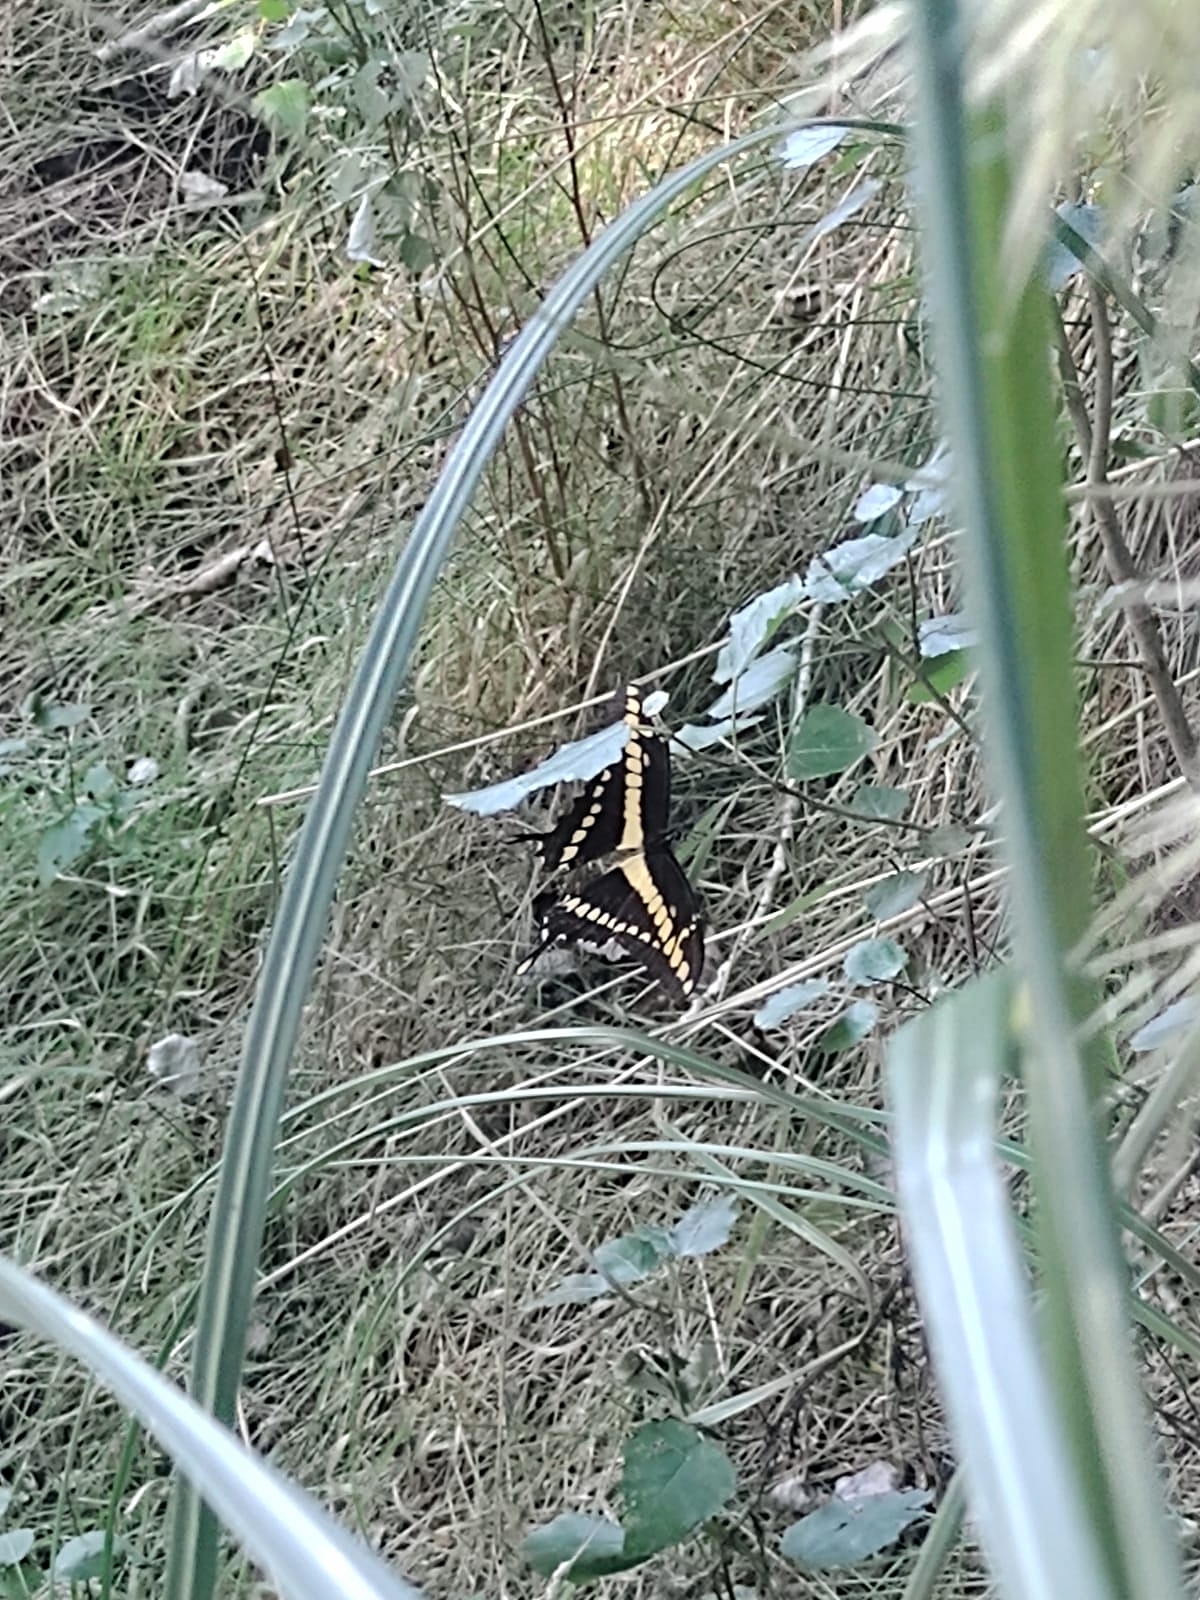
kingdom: Animalia
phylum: Arthropoda
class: Insecta
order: Lepidoptera
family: Papilionidae
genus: Papilio
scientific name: Papilio thoas
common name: King swallowtail
